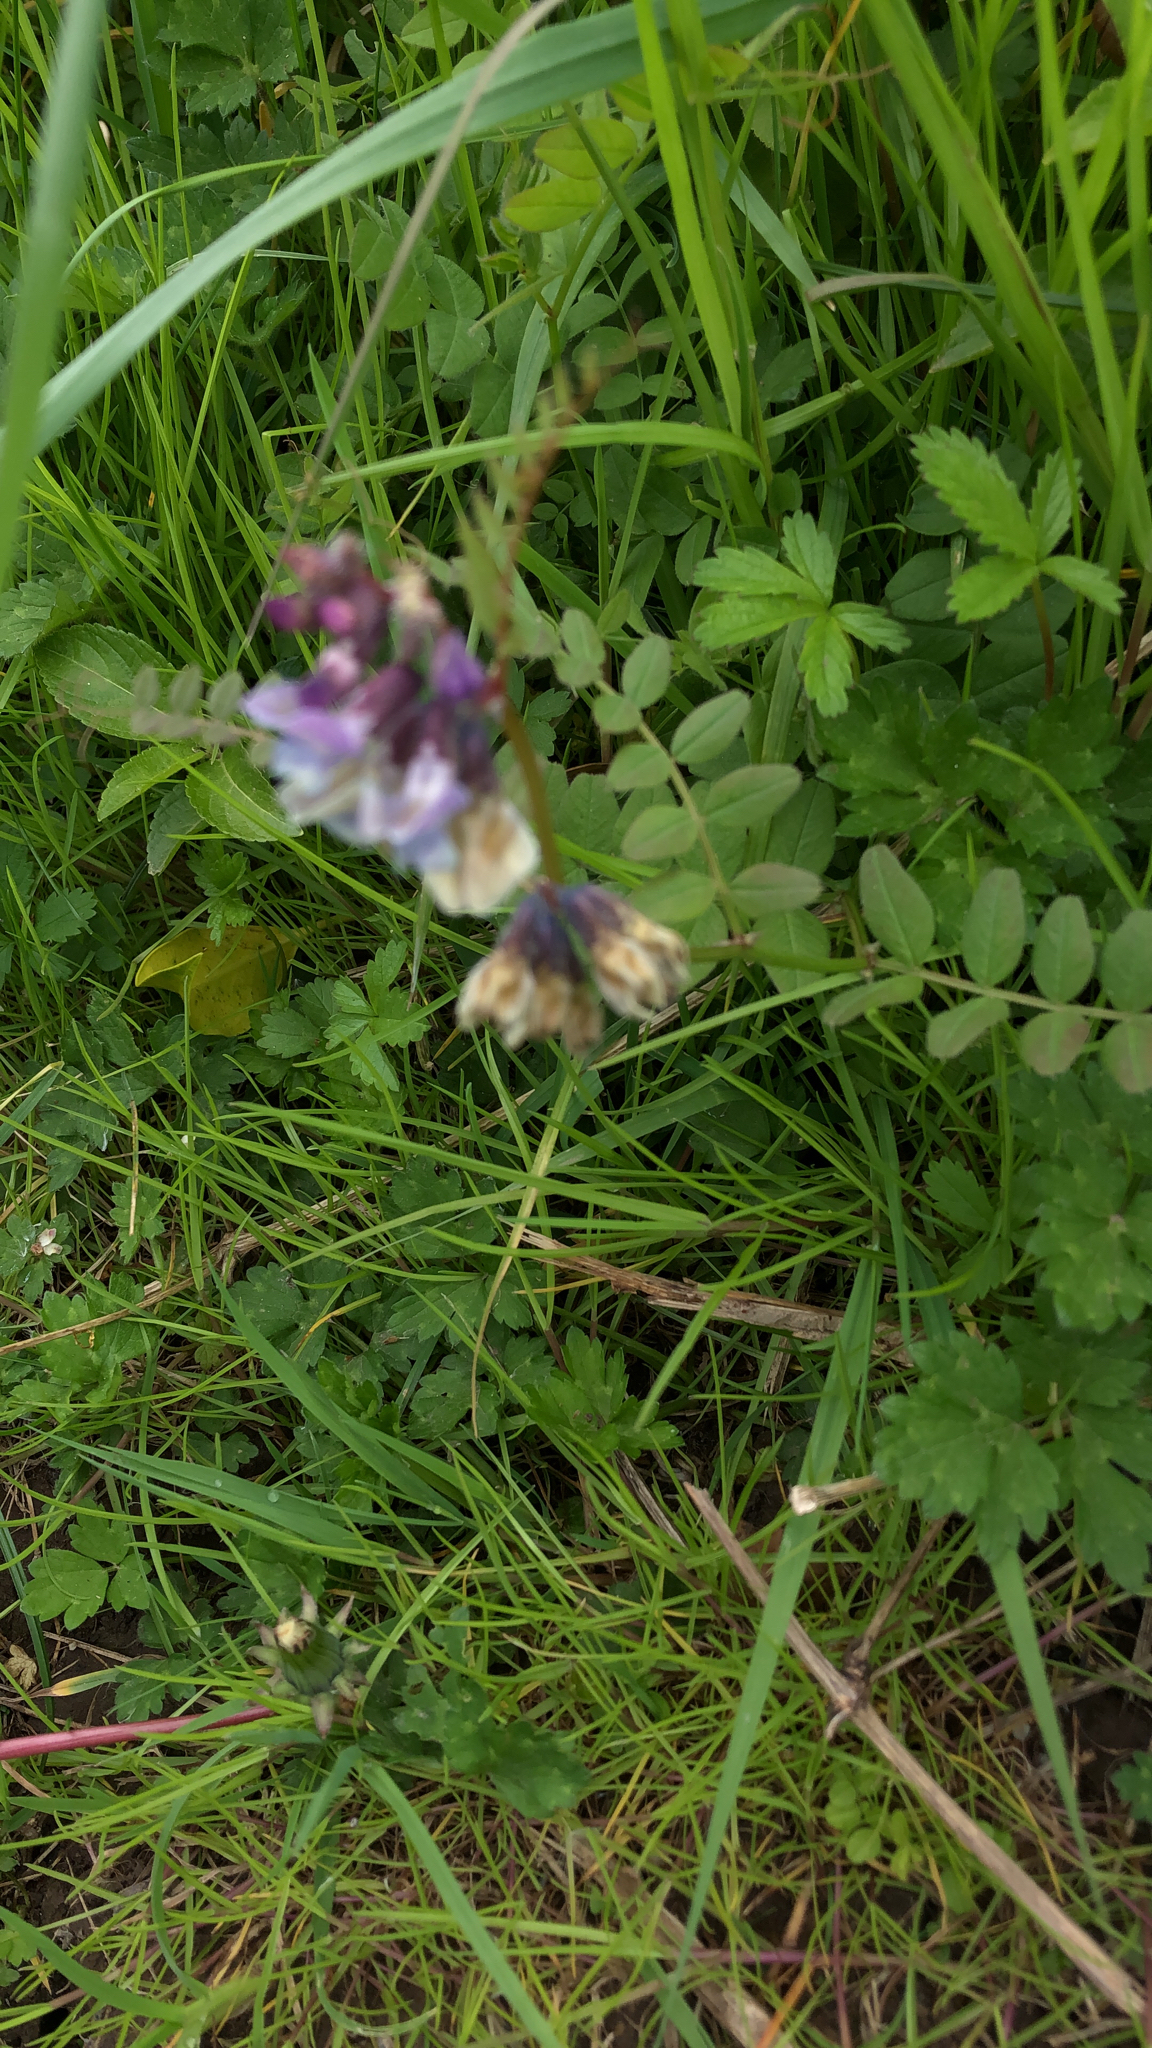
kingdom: Plantae
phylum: Tracheophyta
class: Magnoliopsida
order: Fabales
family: Fabaceae
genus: Vicia
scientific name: Vicia sepium
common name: Bush vetch
